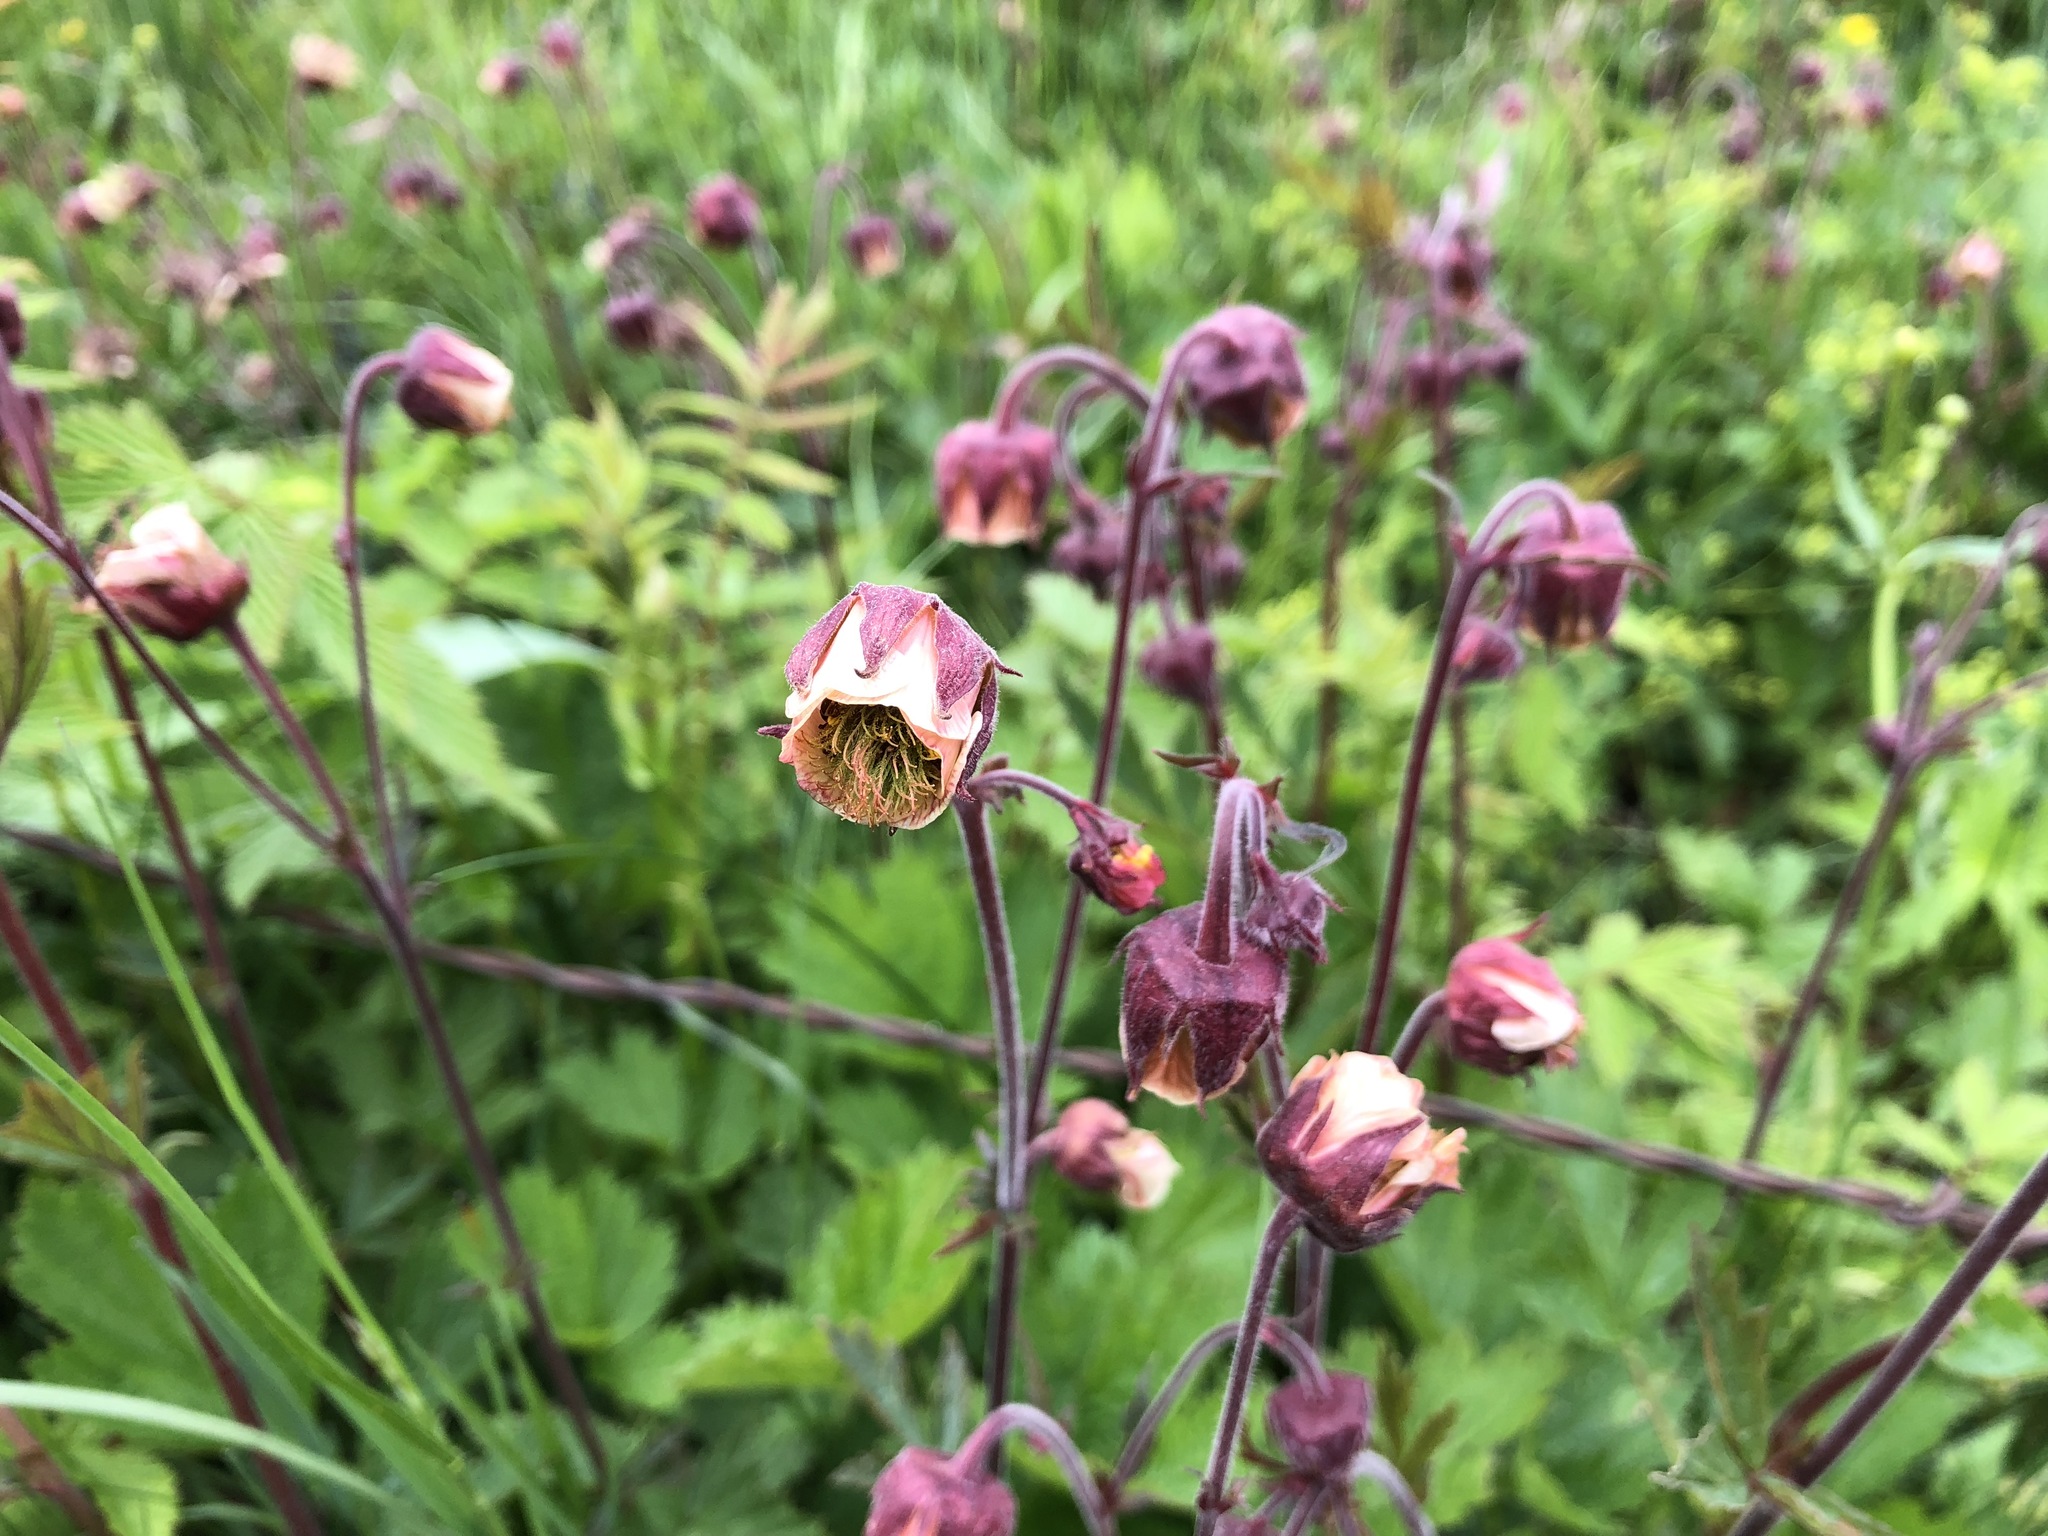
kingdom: Plantae
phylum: Tracheophyta
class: Magnoliopsida
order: Rosales
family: Rosaceae
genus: Geum
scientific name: Geum rivale
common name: Water avens
